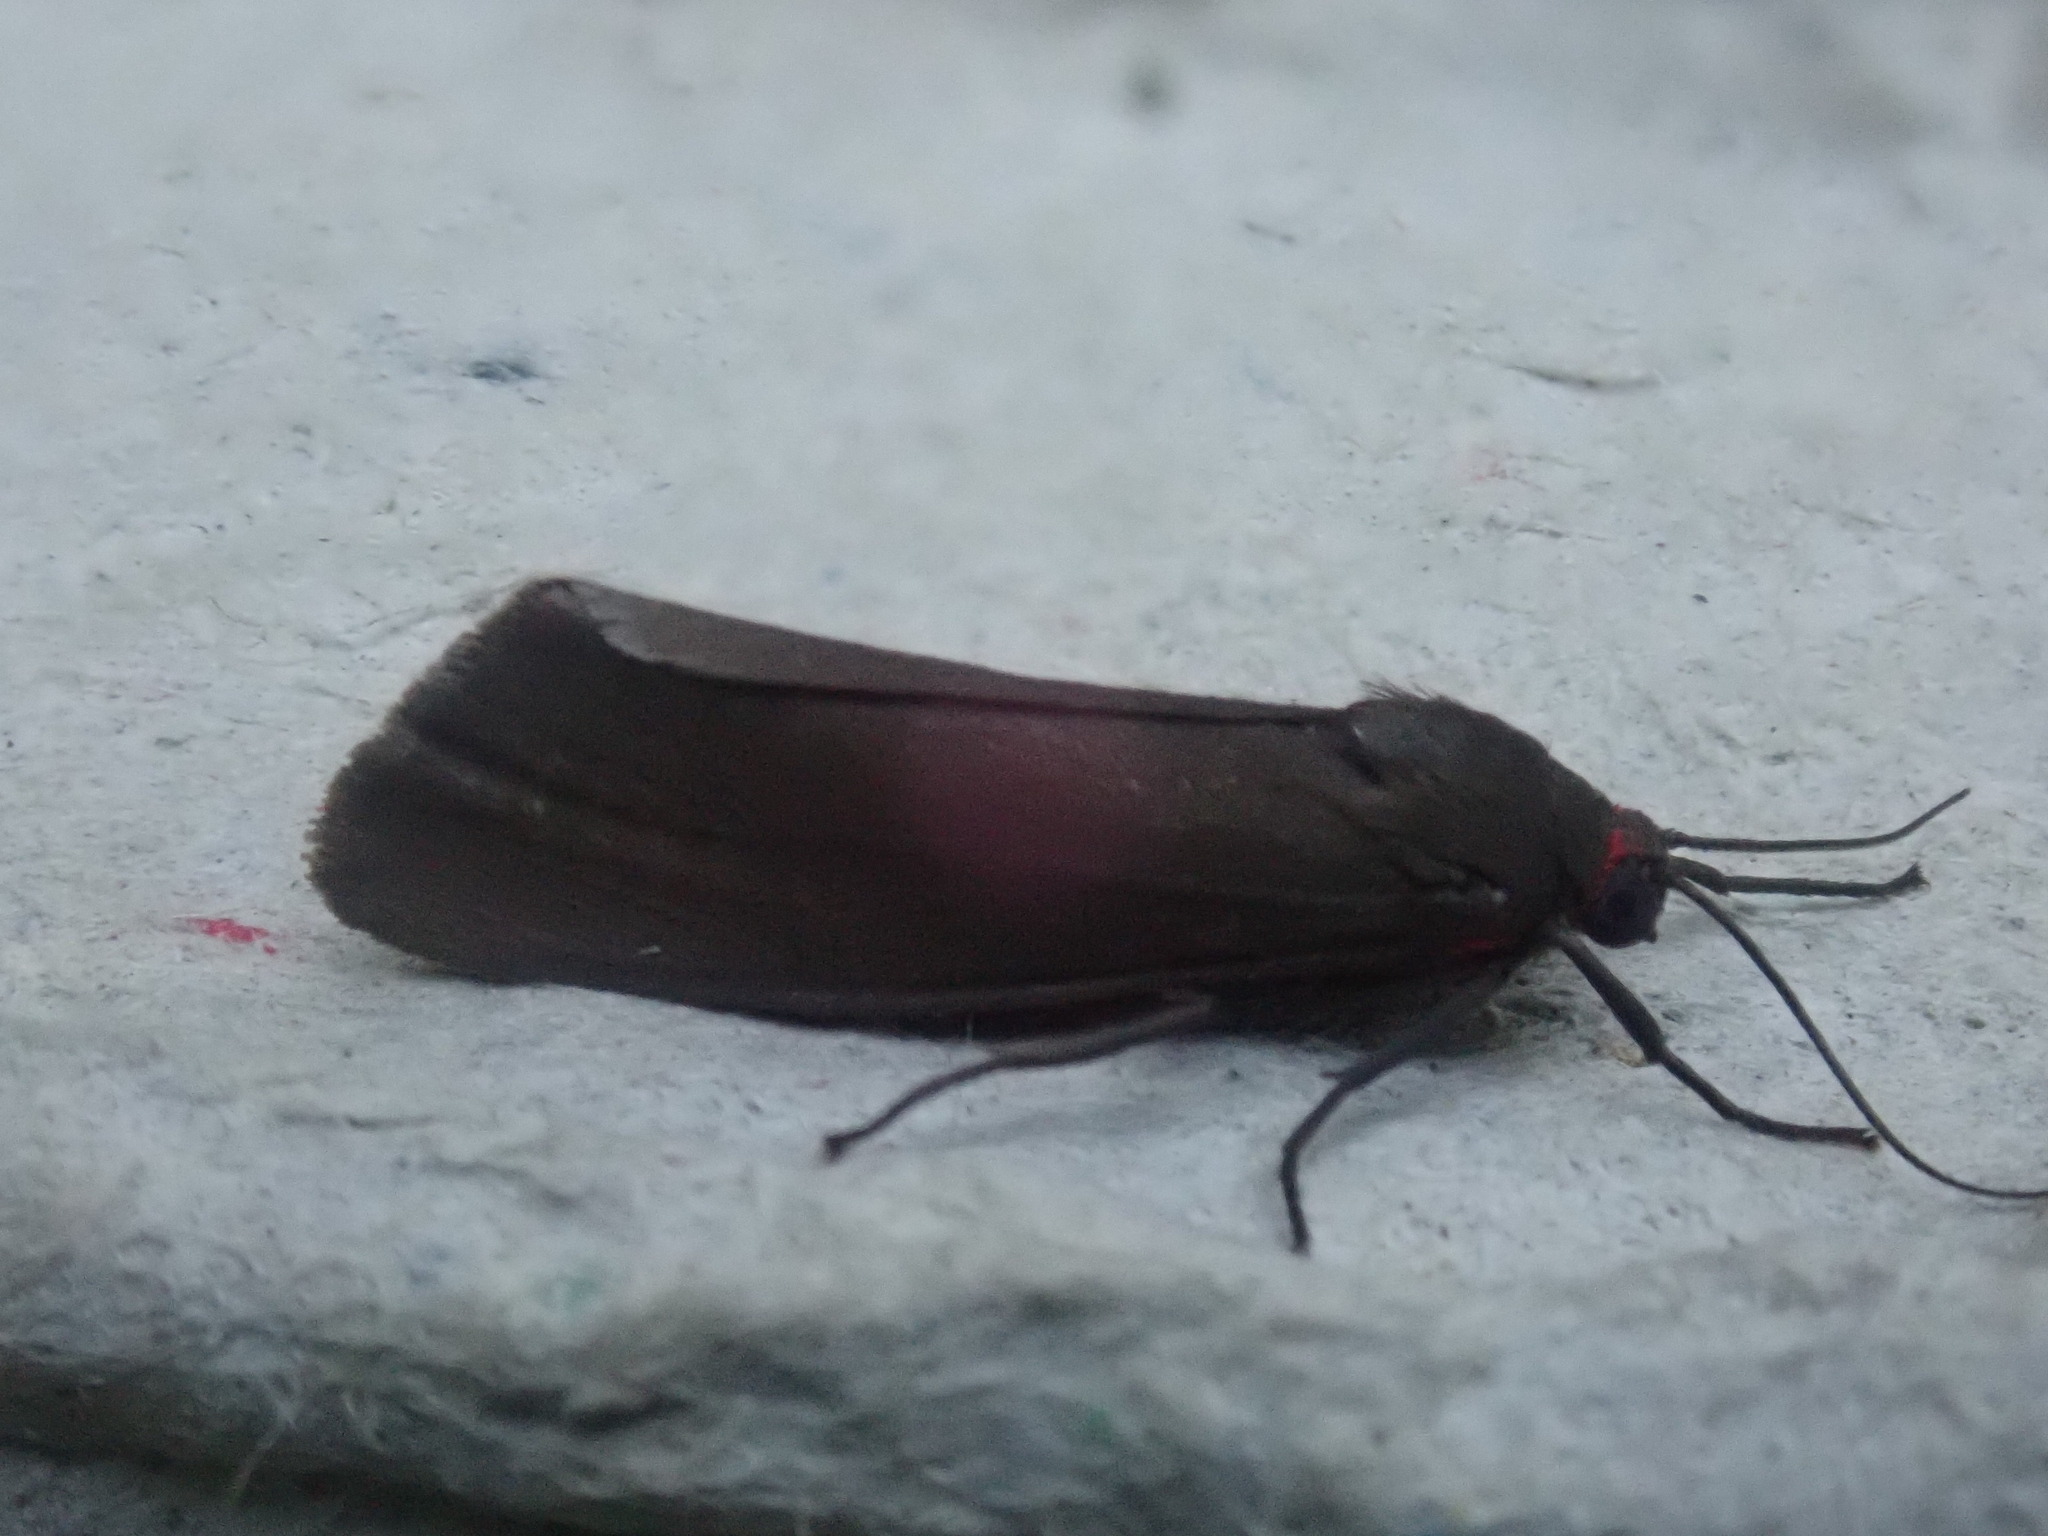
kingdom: Animalia
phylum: Arthropoda
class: Insecta
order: Lepidoptera
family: Erebidae
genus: Virbia
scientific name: Virbia laeta
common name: Joyful holomelina moth
